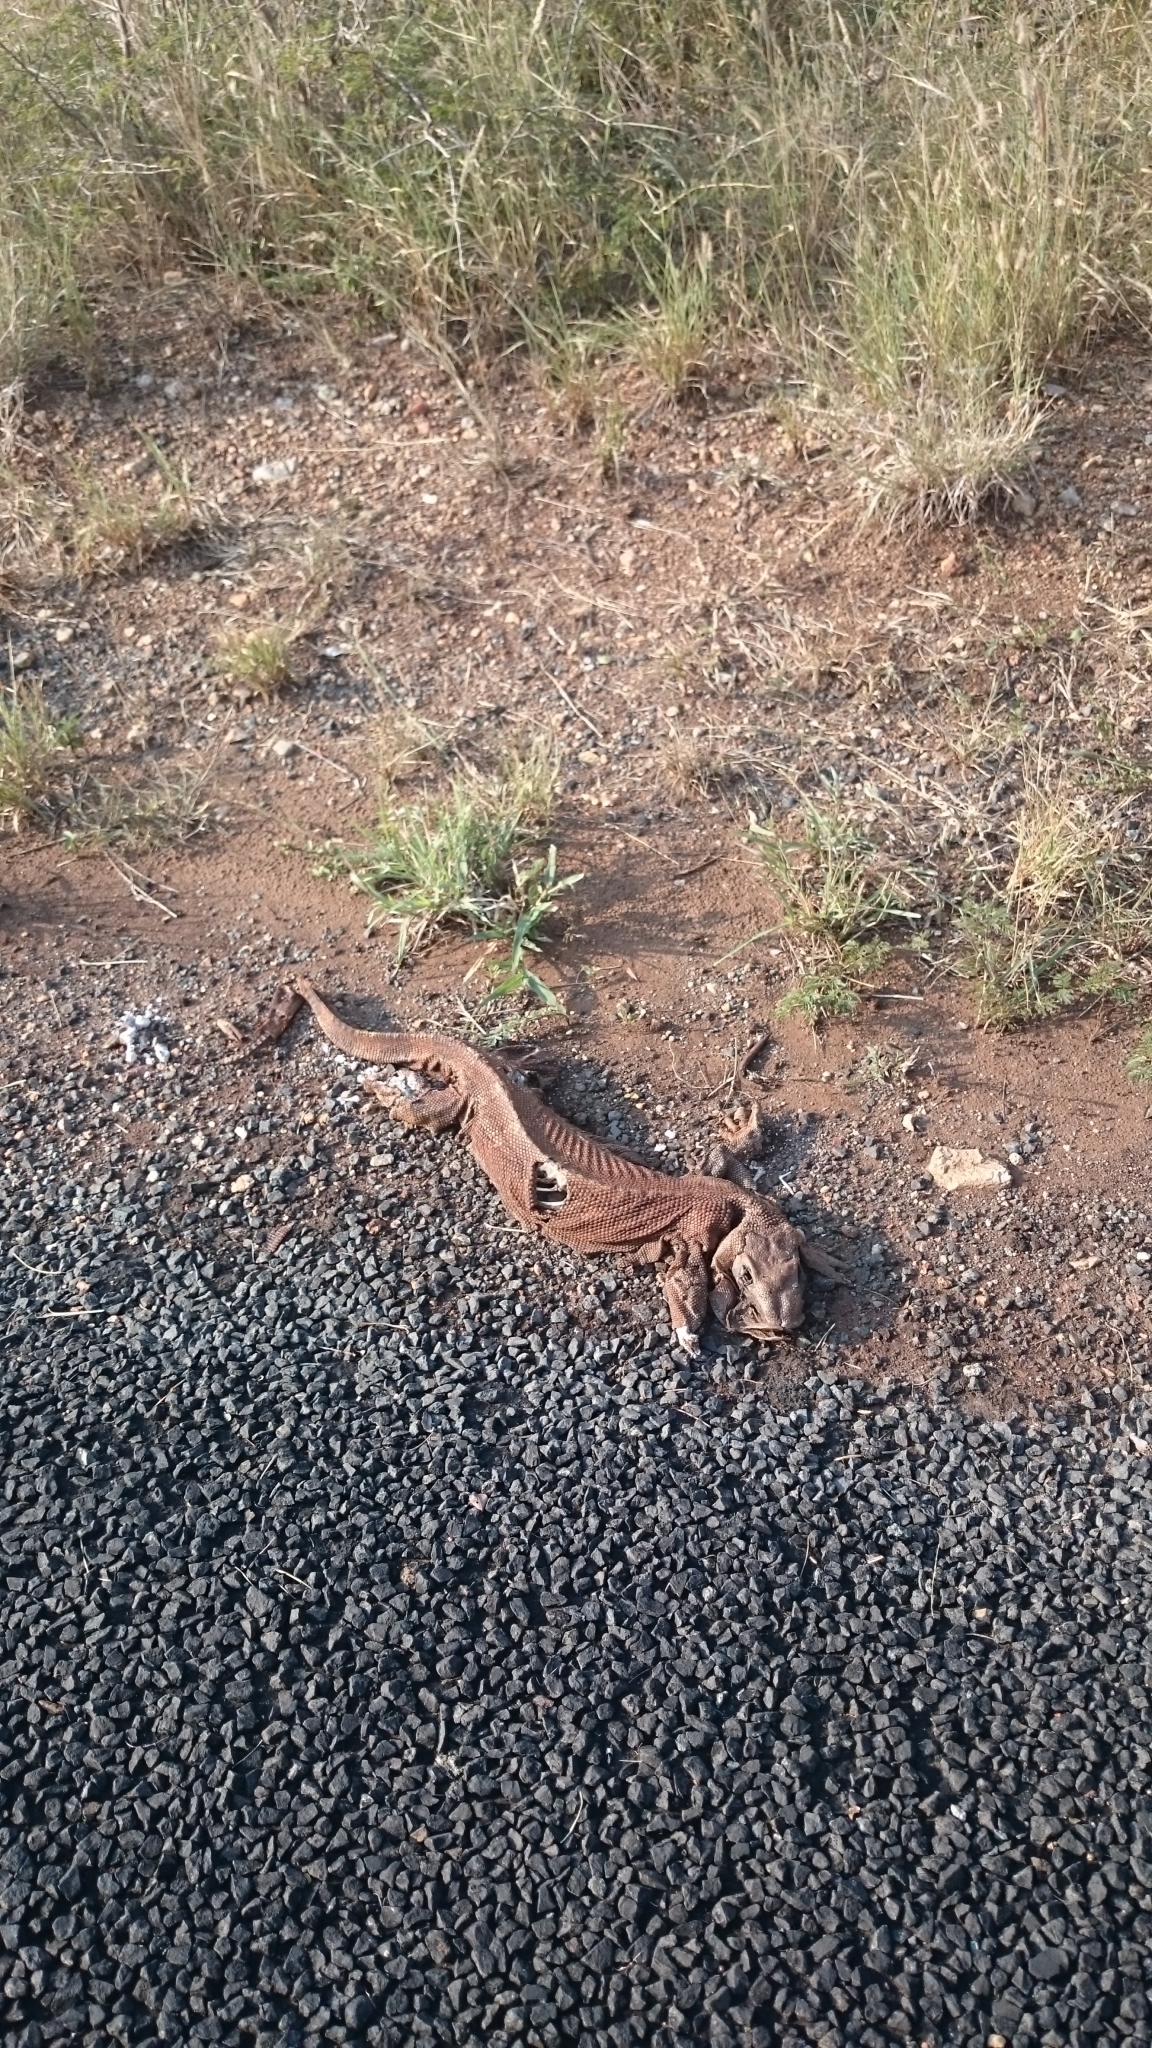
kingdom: Animalia
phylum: Chordata
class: Squamata
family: Varanidae
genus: Varanus
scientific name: Varanus albigularis
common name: White-throated monitor
